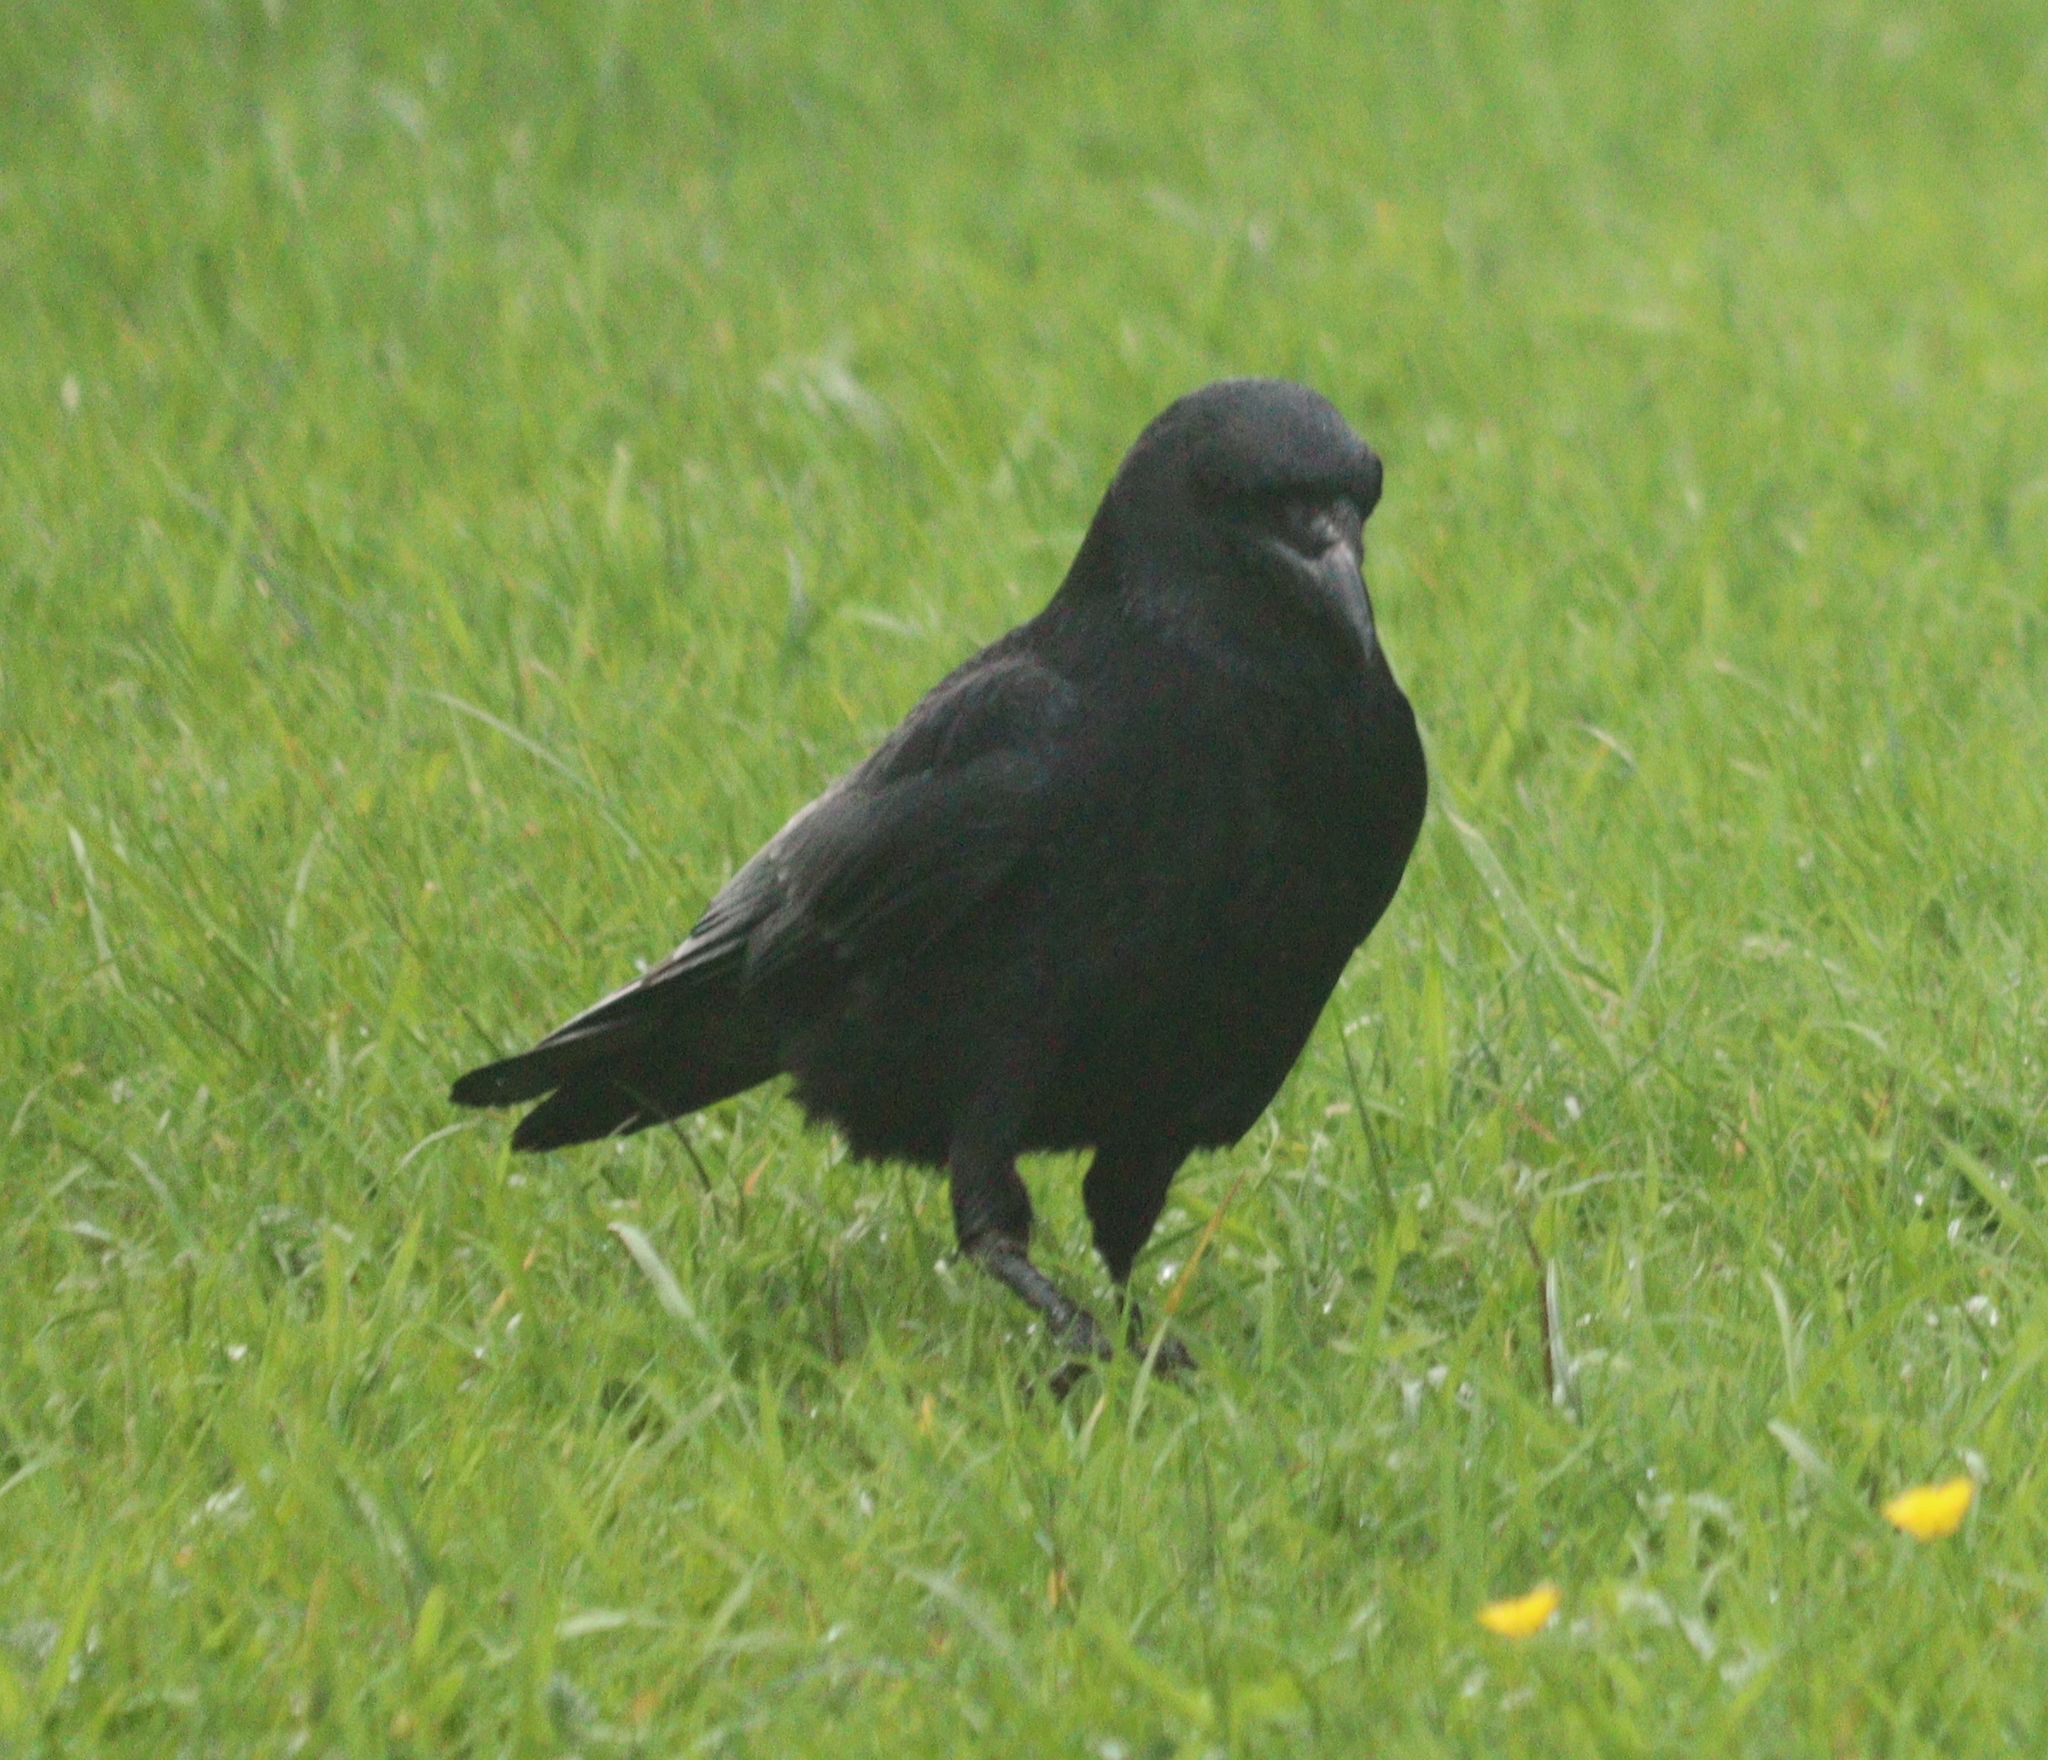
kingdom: Animalia
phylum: Chordata
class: Aves
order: Passeriformes
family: Corvidae
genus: Corvus
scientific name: Corvus corone
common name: Carrion crow
